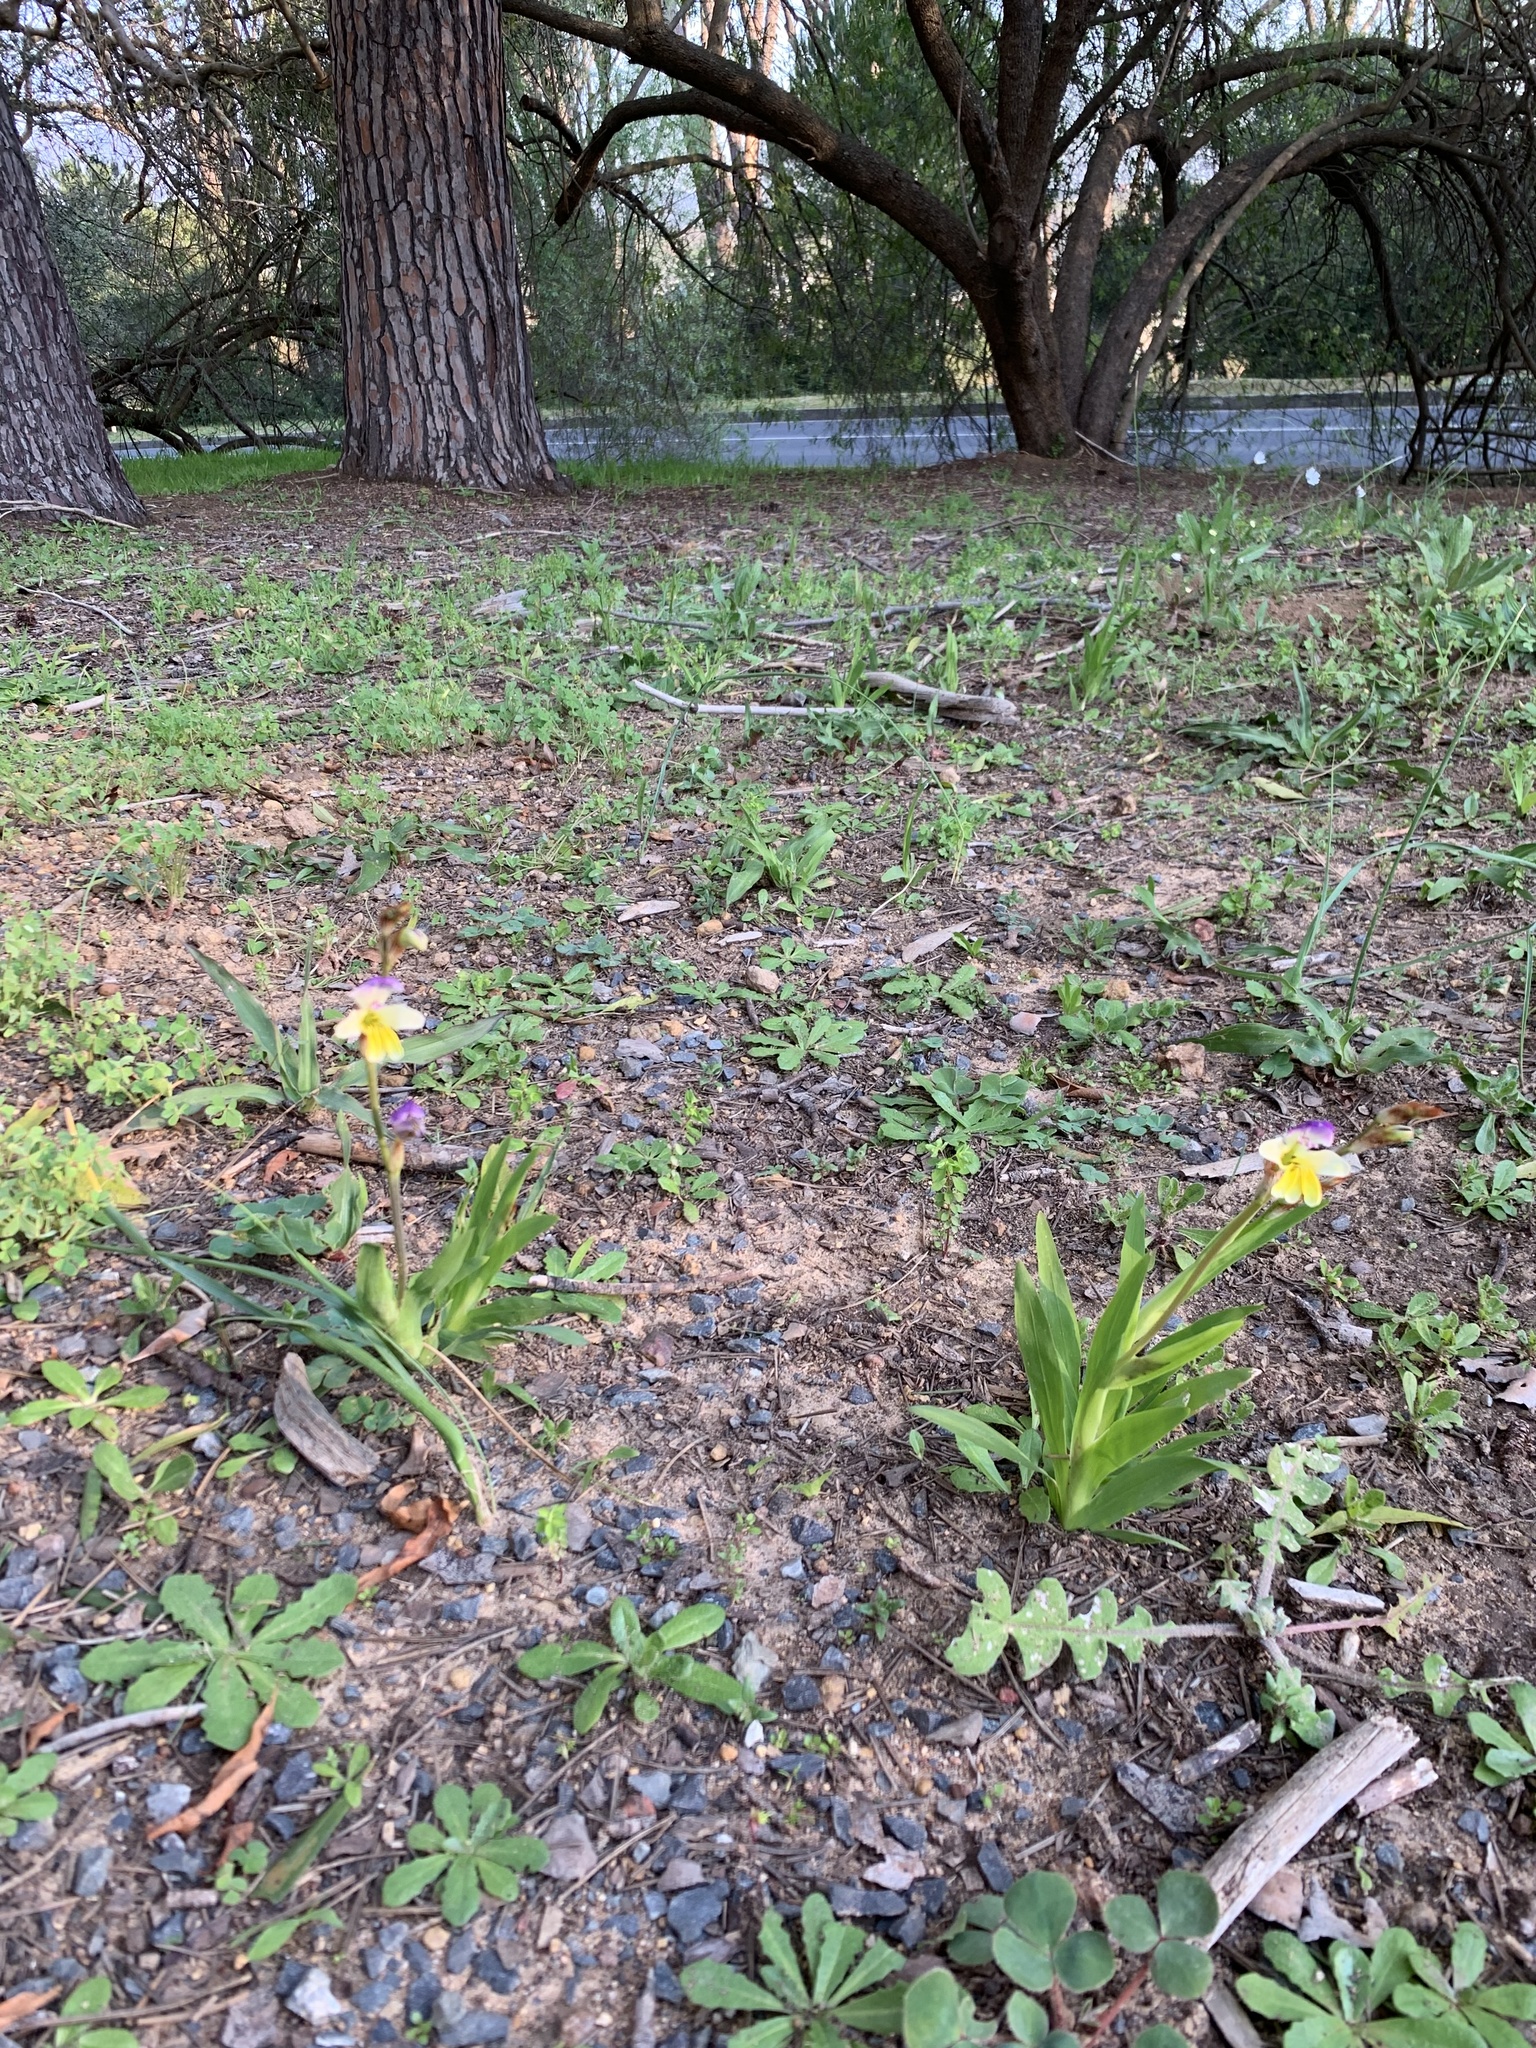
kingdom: Plantae
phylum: Tracheophyta
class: Liliopsida
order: Asparagales
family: Iridaceae
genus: Sparaxis
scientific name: Sparaxis villosa
